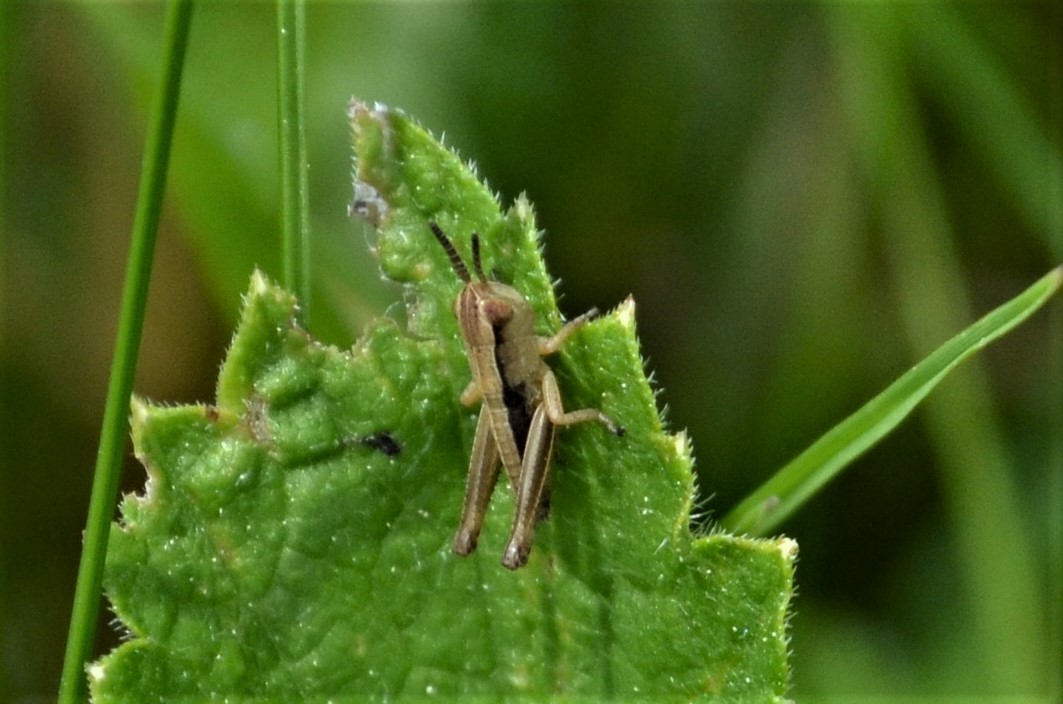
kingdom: Animalia
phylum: Arthropoda
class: Insecta
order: Orthoptera
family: Acrididae
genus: Pseudochorthippus
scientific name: Pseudochorthippus parallelus
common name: Meadow grasshopper
